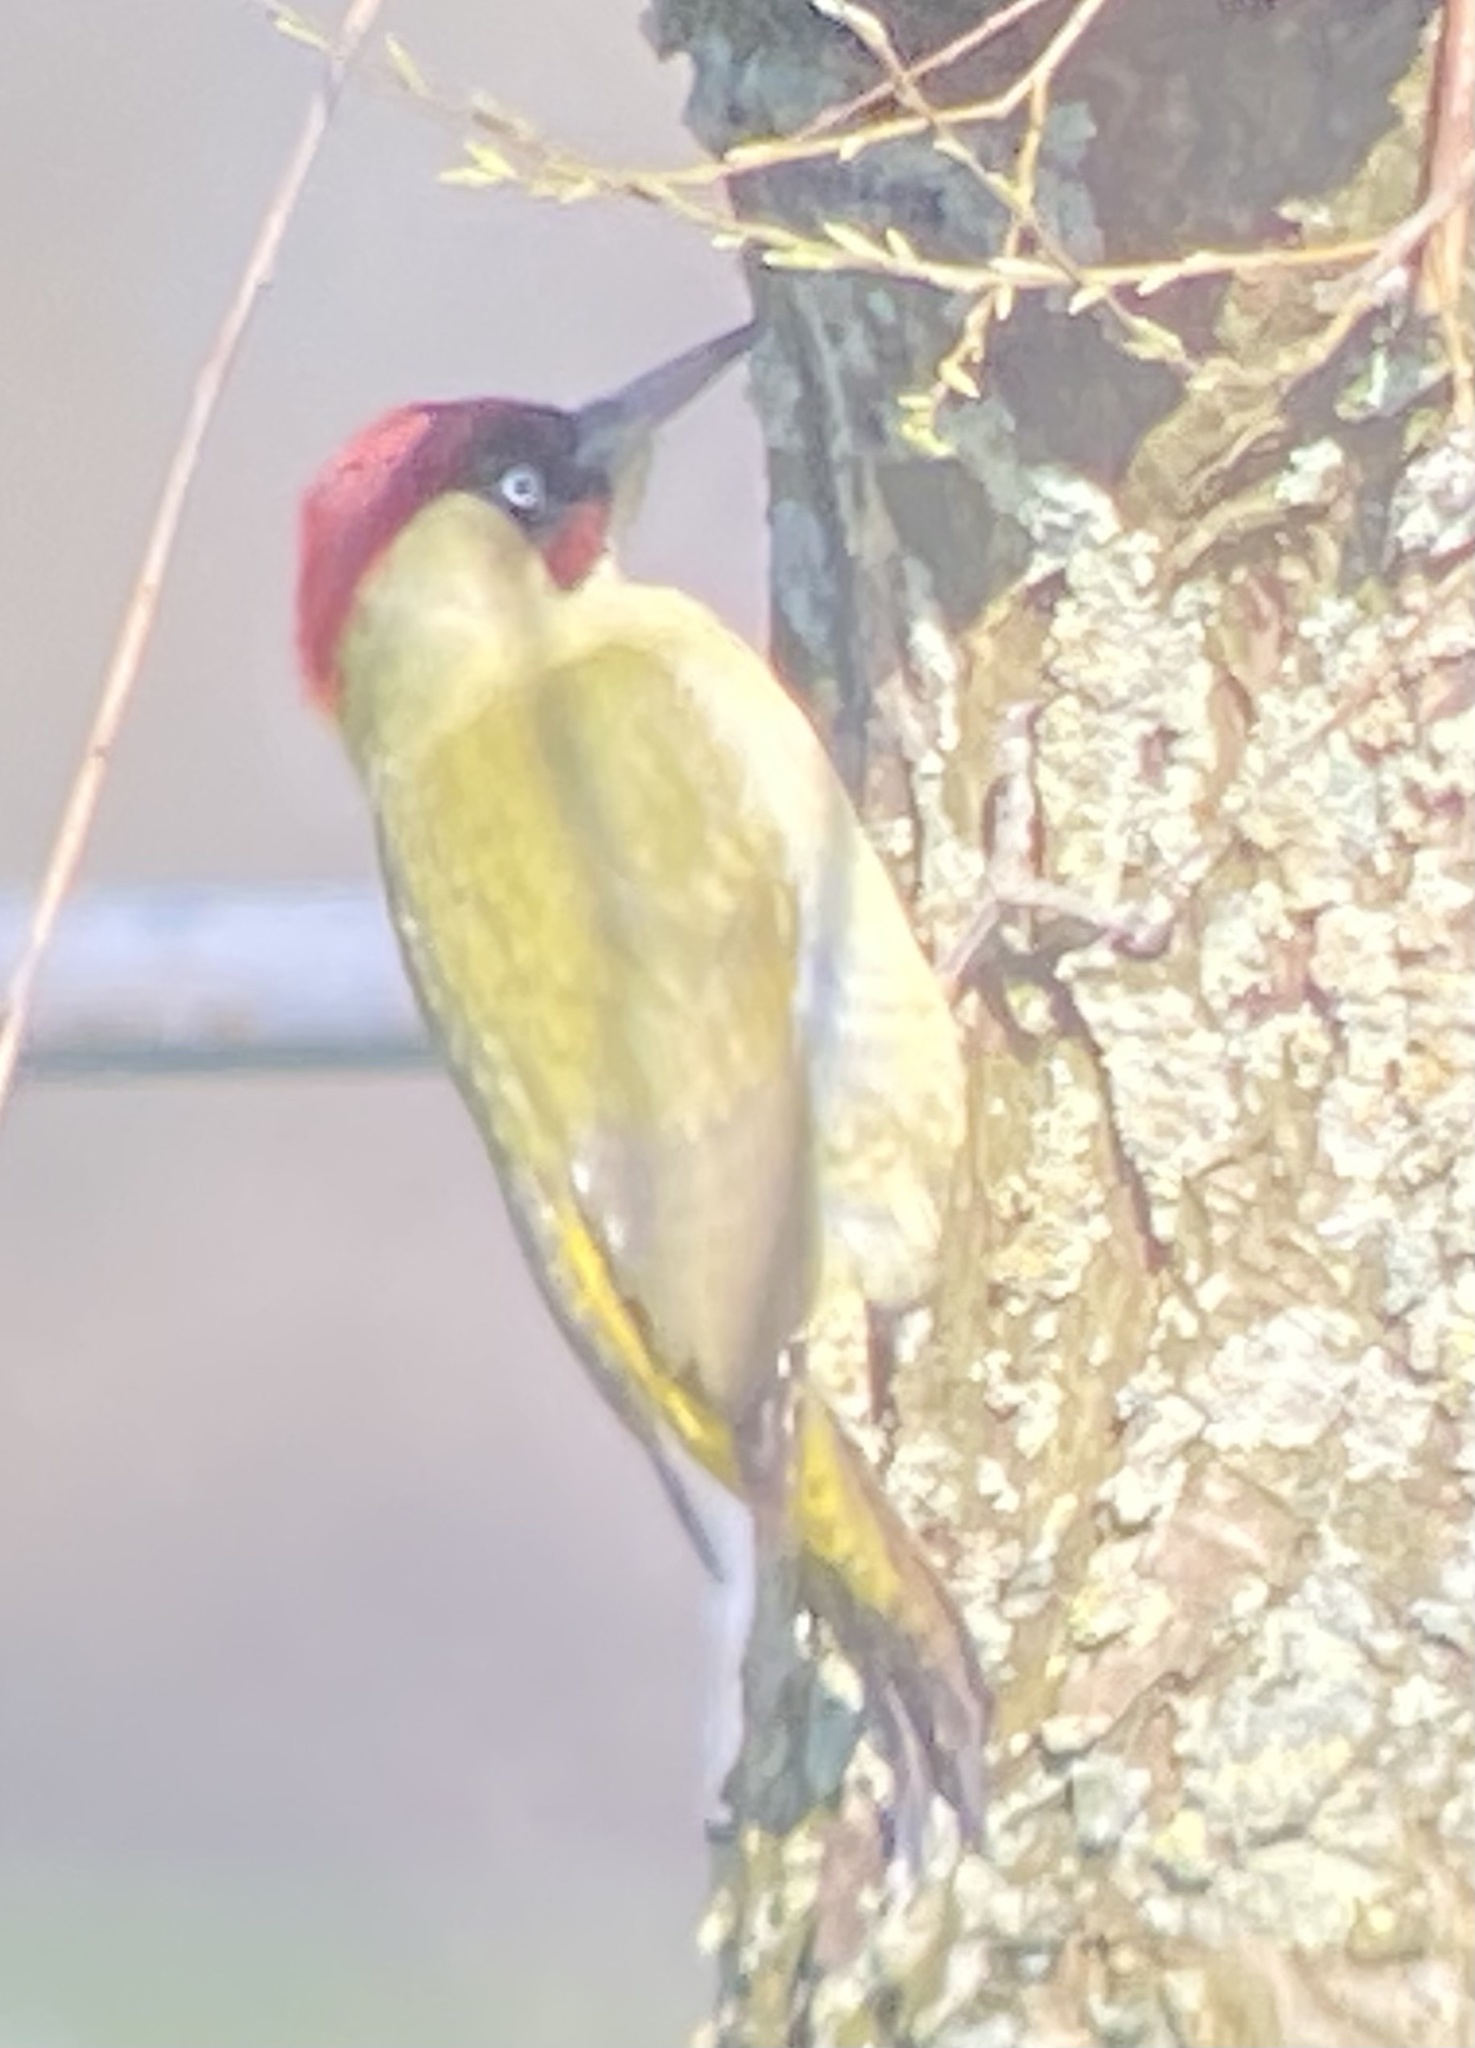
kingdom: Animalia
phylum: Chordata
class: Aves
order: Piciformes
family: Picidae
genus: Picus
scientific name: Picus viridis
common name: European green woodpecker
